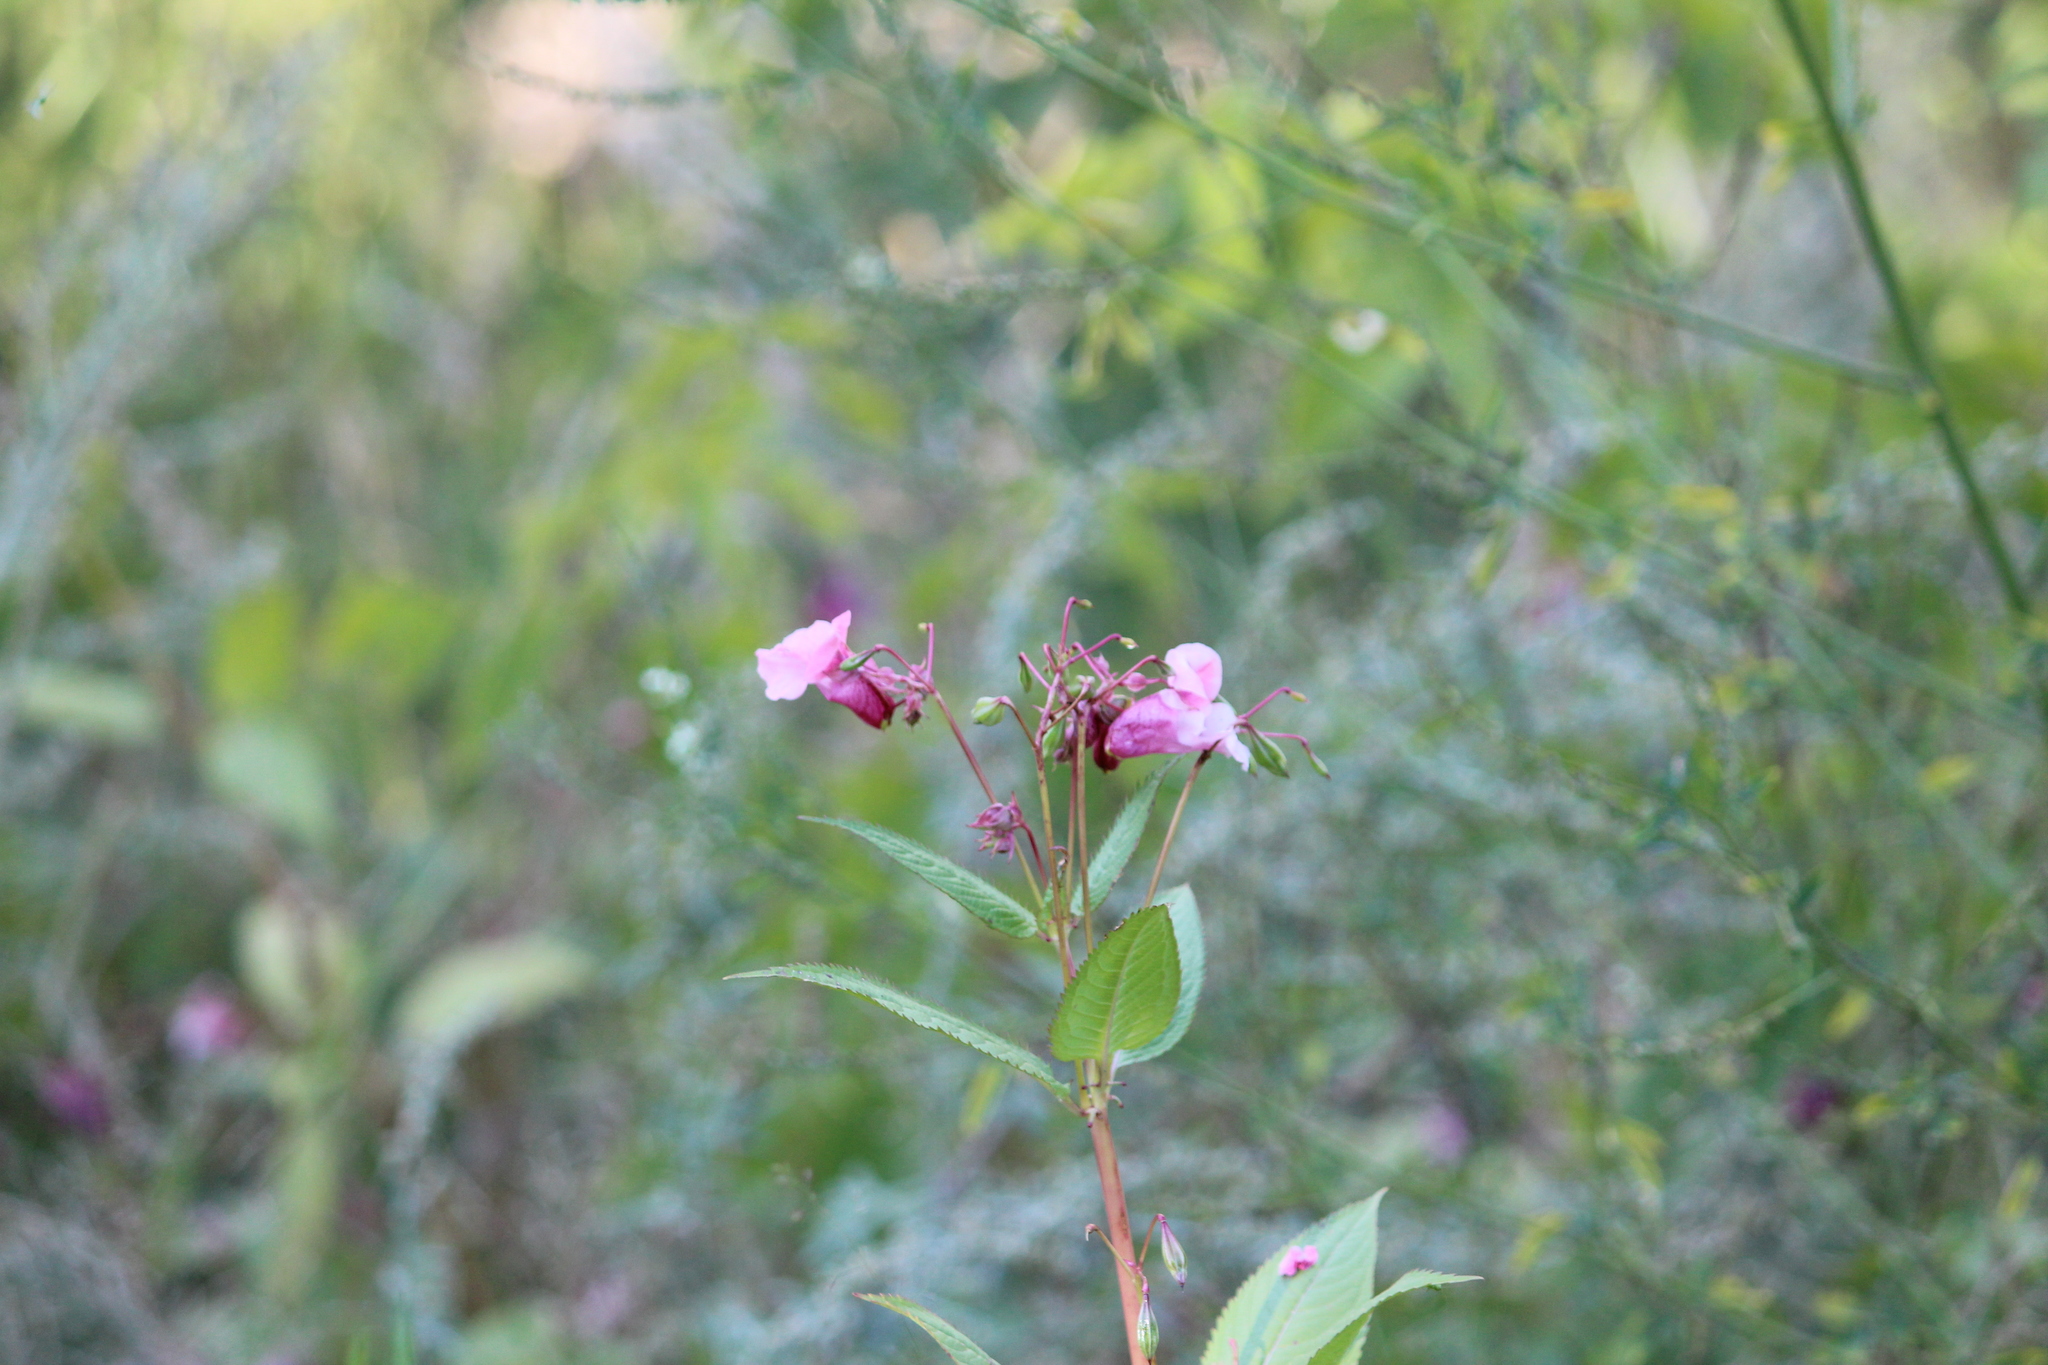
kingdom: Plantae
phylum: Tracheophyta
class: Magnoliopsida
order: Ericales
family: Balsaminaceae
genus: Impatiens
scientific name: Impatiens glandulifera
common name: Himalayan balsam
